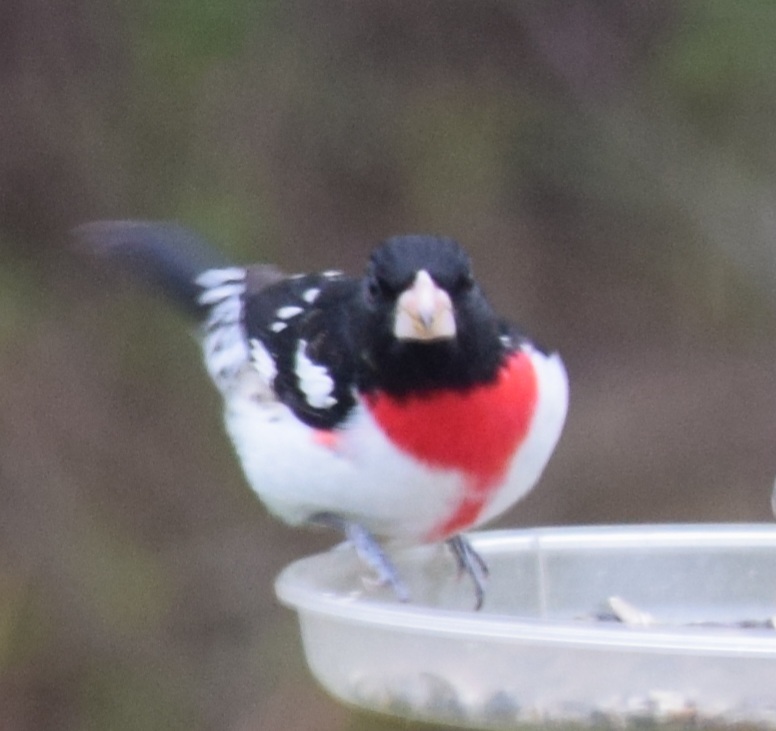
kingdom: Animalia
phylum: Chordata
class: Aves
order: Passeriformes
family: Cardinalidae
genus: Pheucticus
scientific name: Pheucticus ludovicianus
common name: Rose-breasted grosbeak
